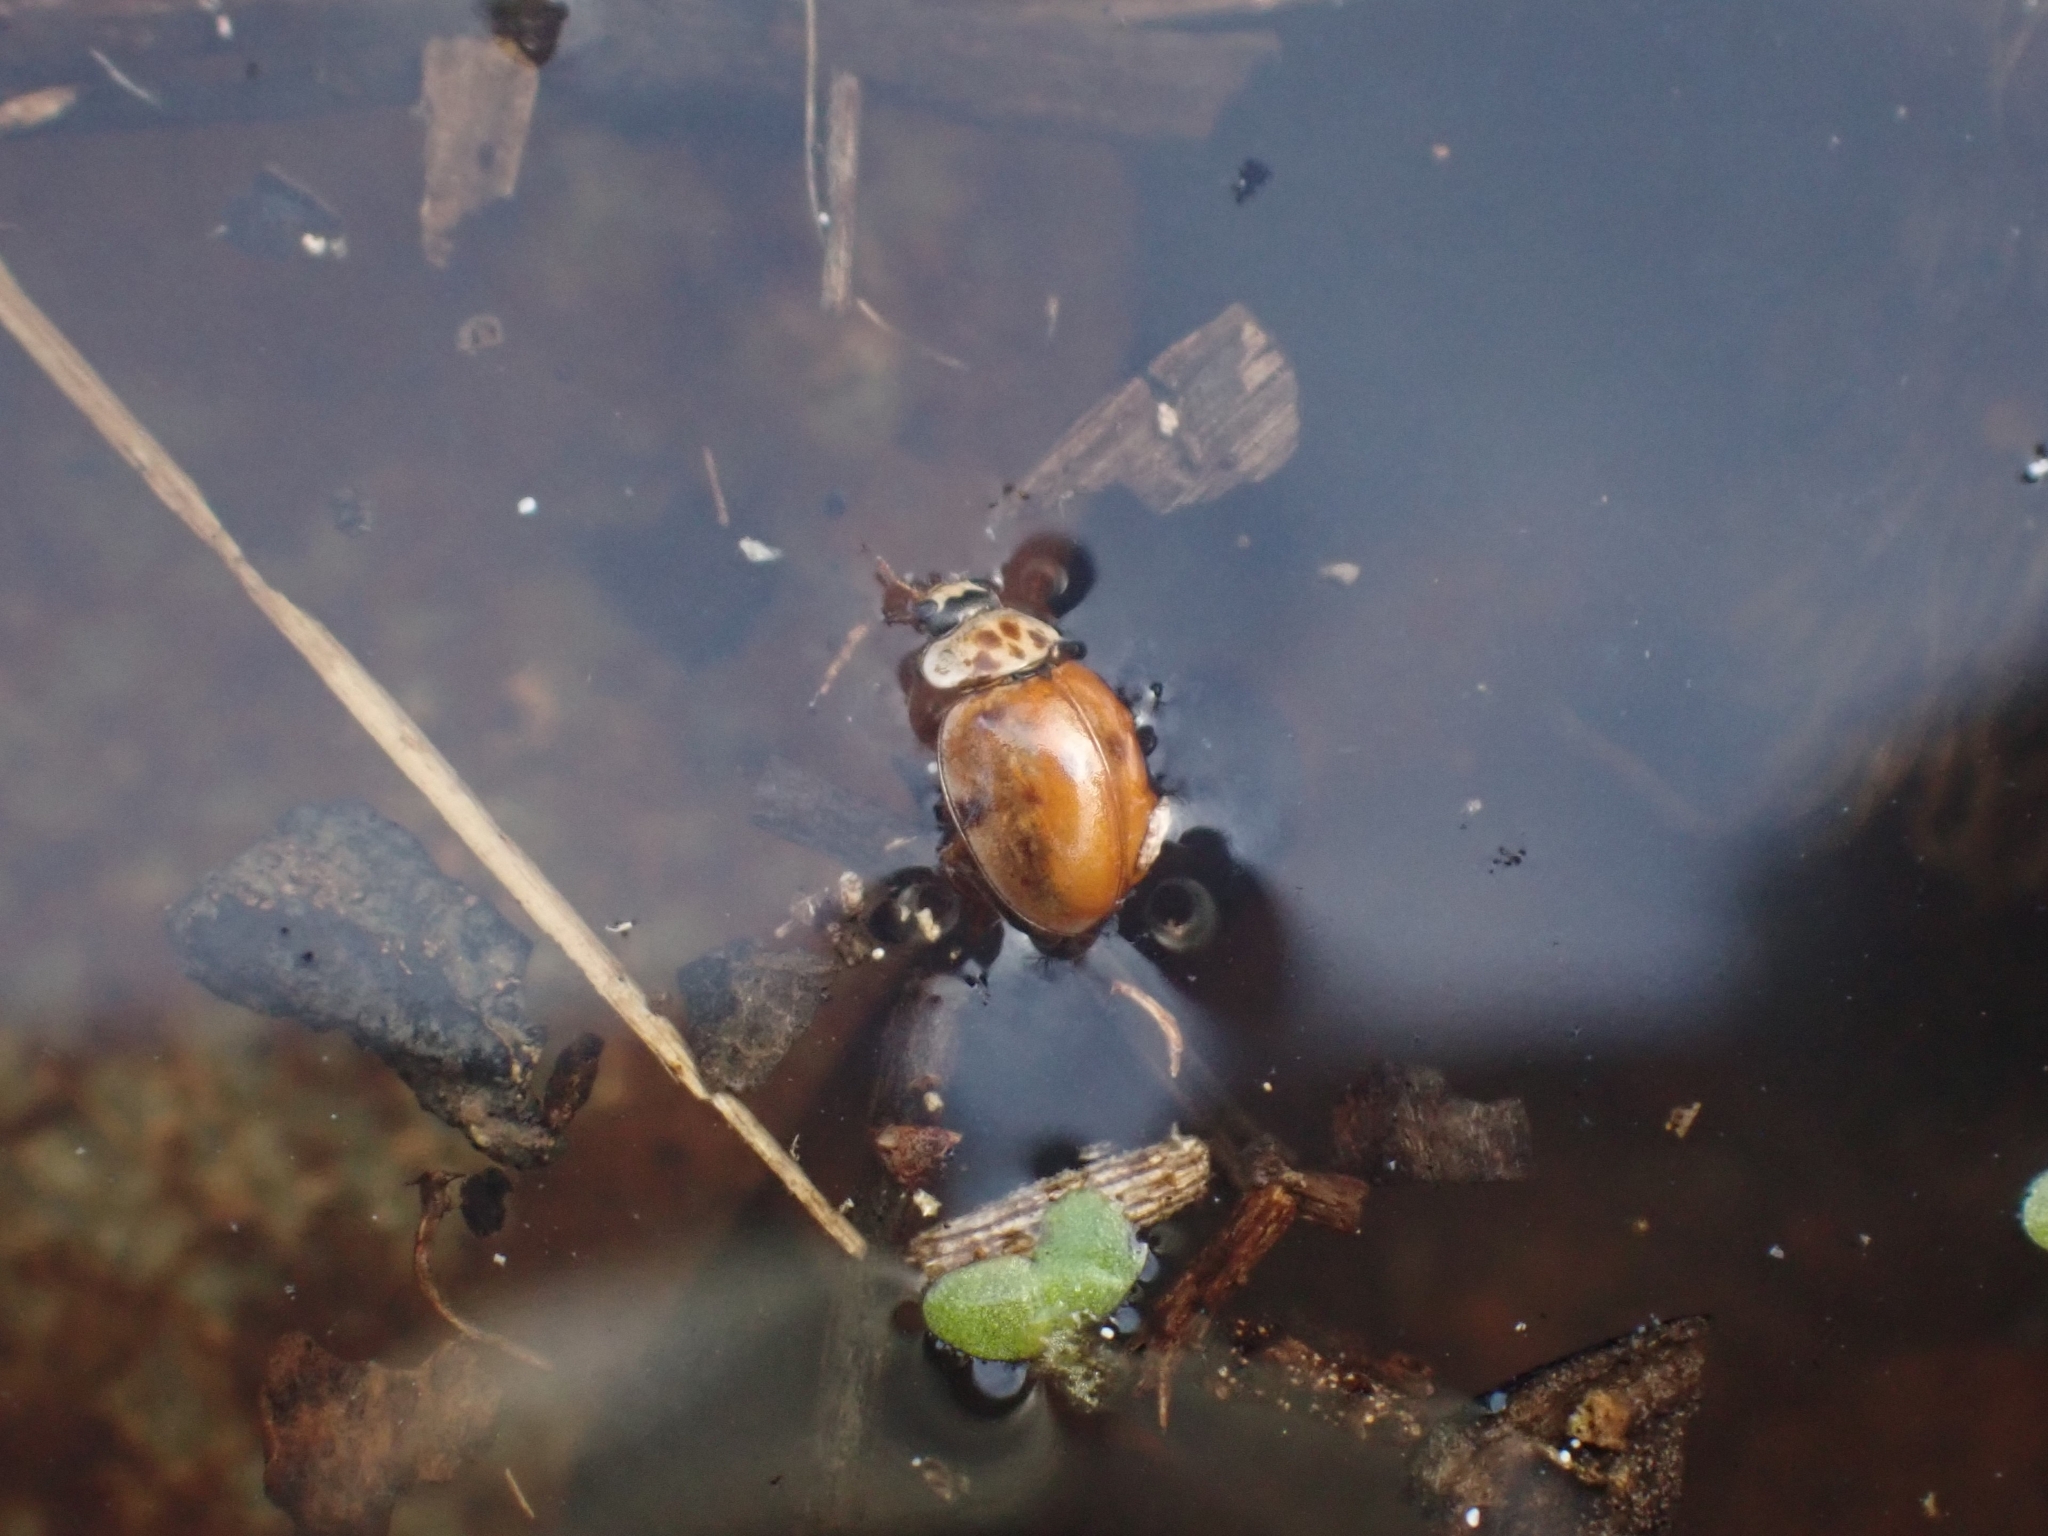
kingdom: Animalia
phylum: Arthropoda
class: Insecta
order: Coleoptera
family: Coccinellidae
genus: Adalia
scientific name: Adalia decempunctata
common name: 10-spot ladybird
